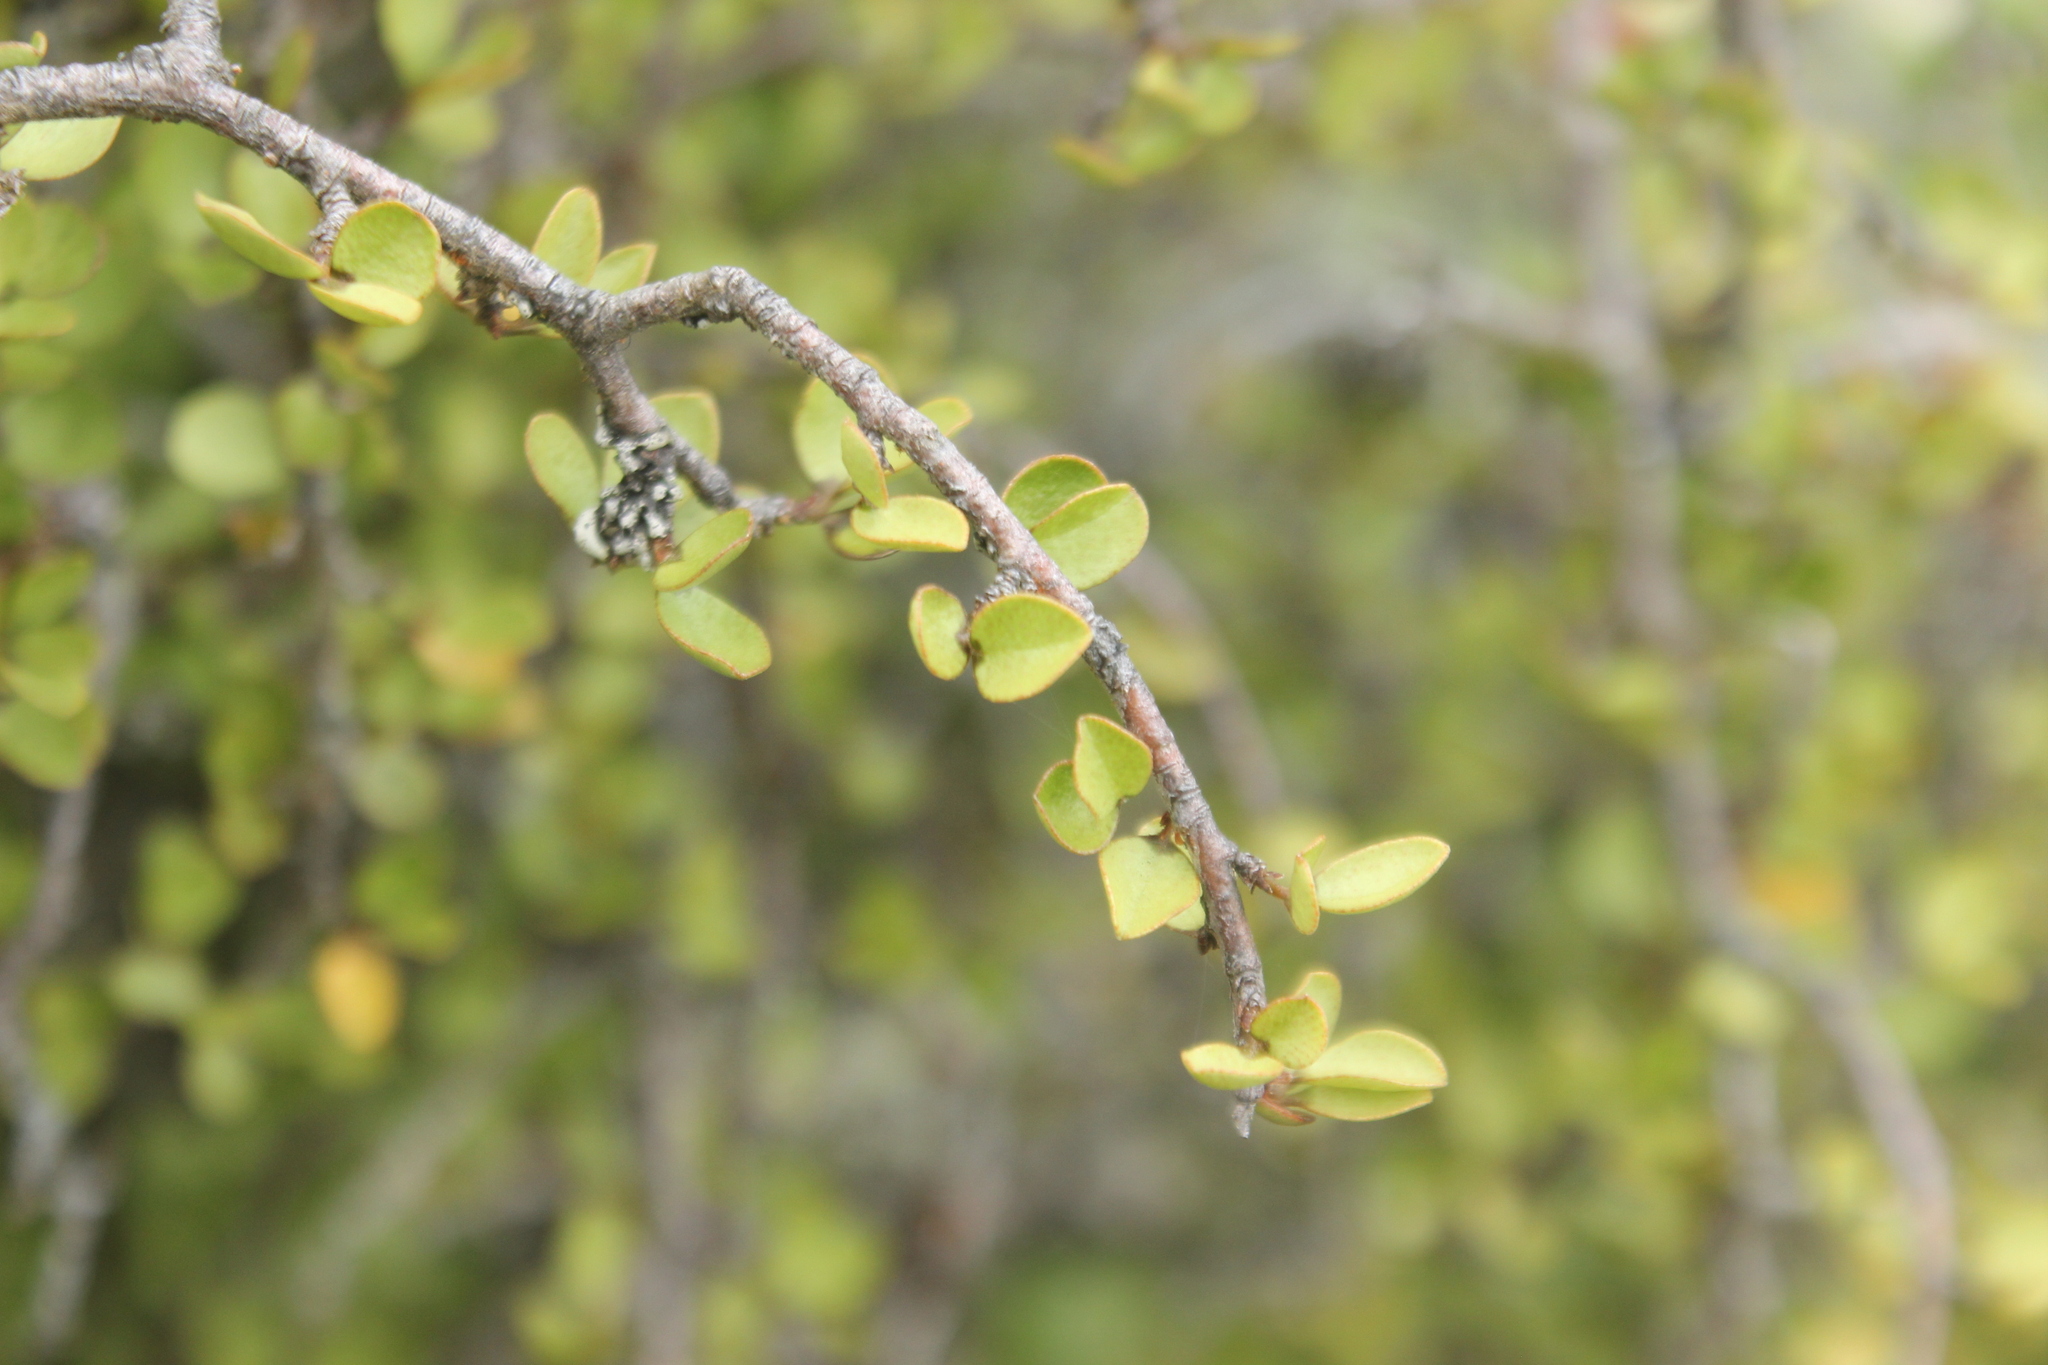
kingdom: Plantae
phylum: Tracheophyta
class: Magnoliopsida
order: Ericales
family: Primulaceae
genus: Myrsine
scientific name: Myrsine divaricata
